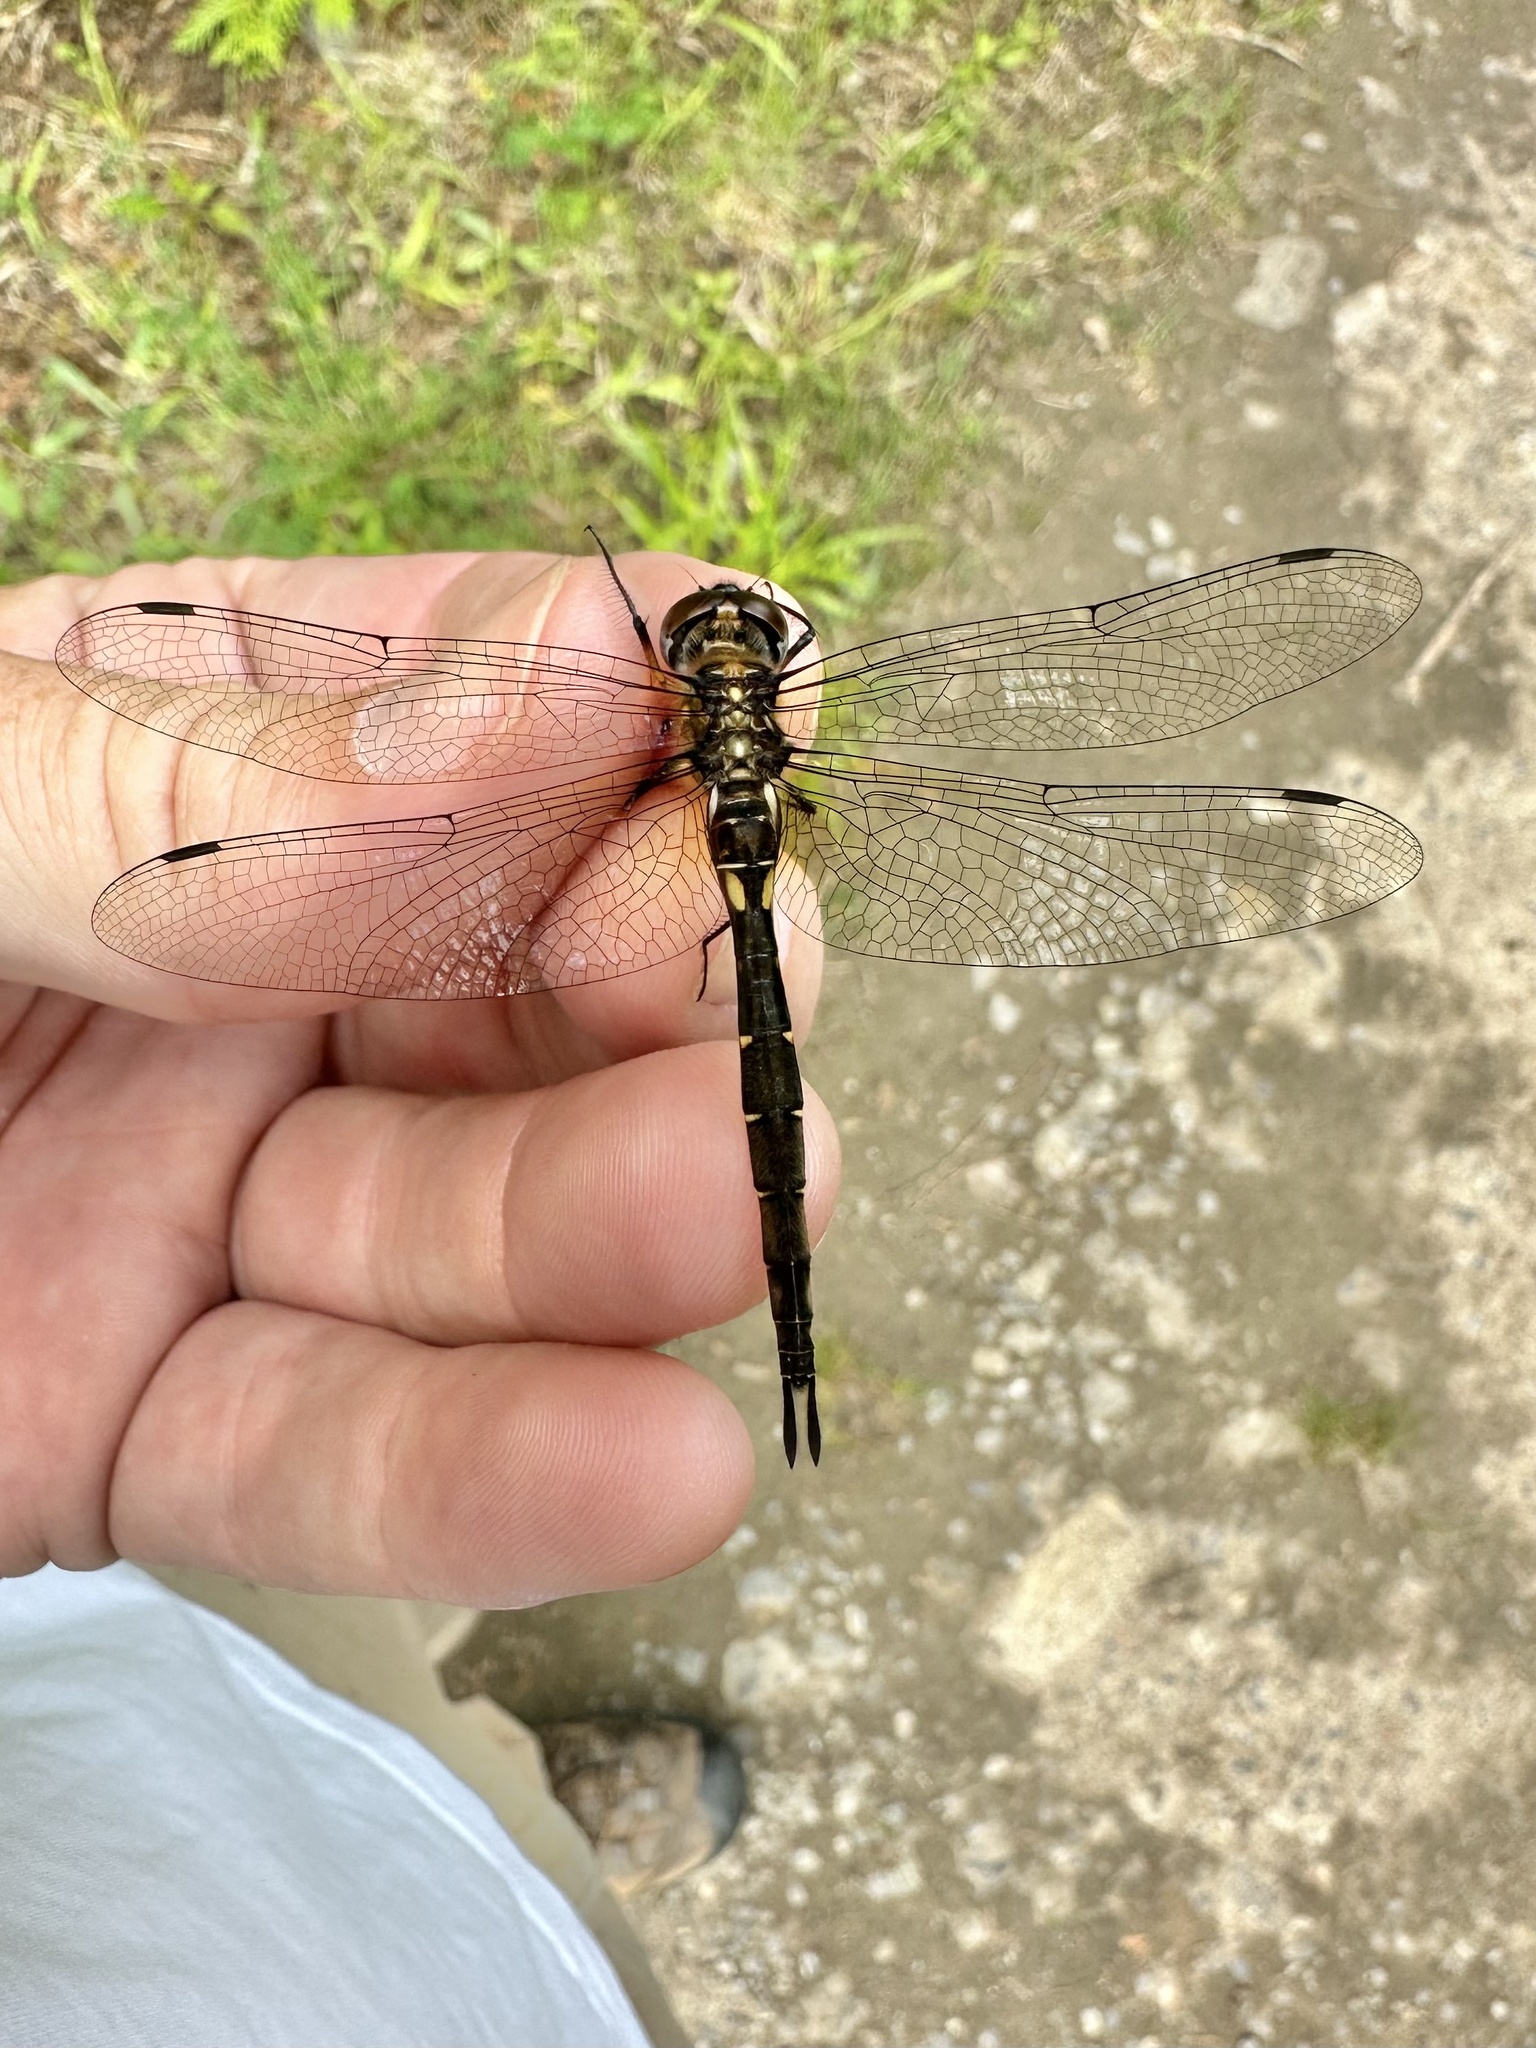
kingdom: Animalia
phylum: Arthropoda
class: Insecta
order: Odonata
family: Corduliidae
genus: Somatochlora
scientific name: Somatochlora walshii
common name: Brush-tipped emerald
